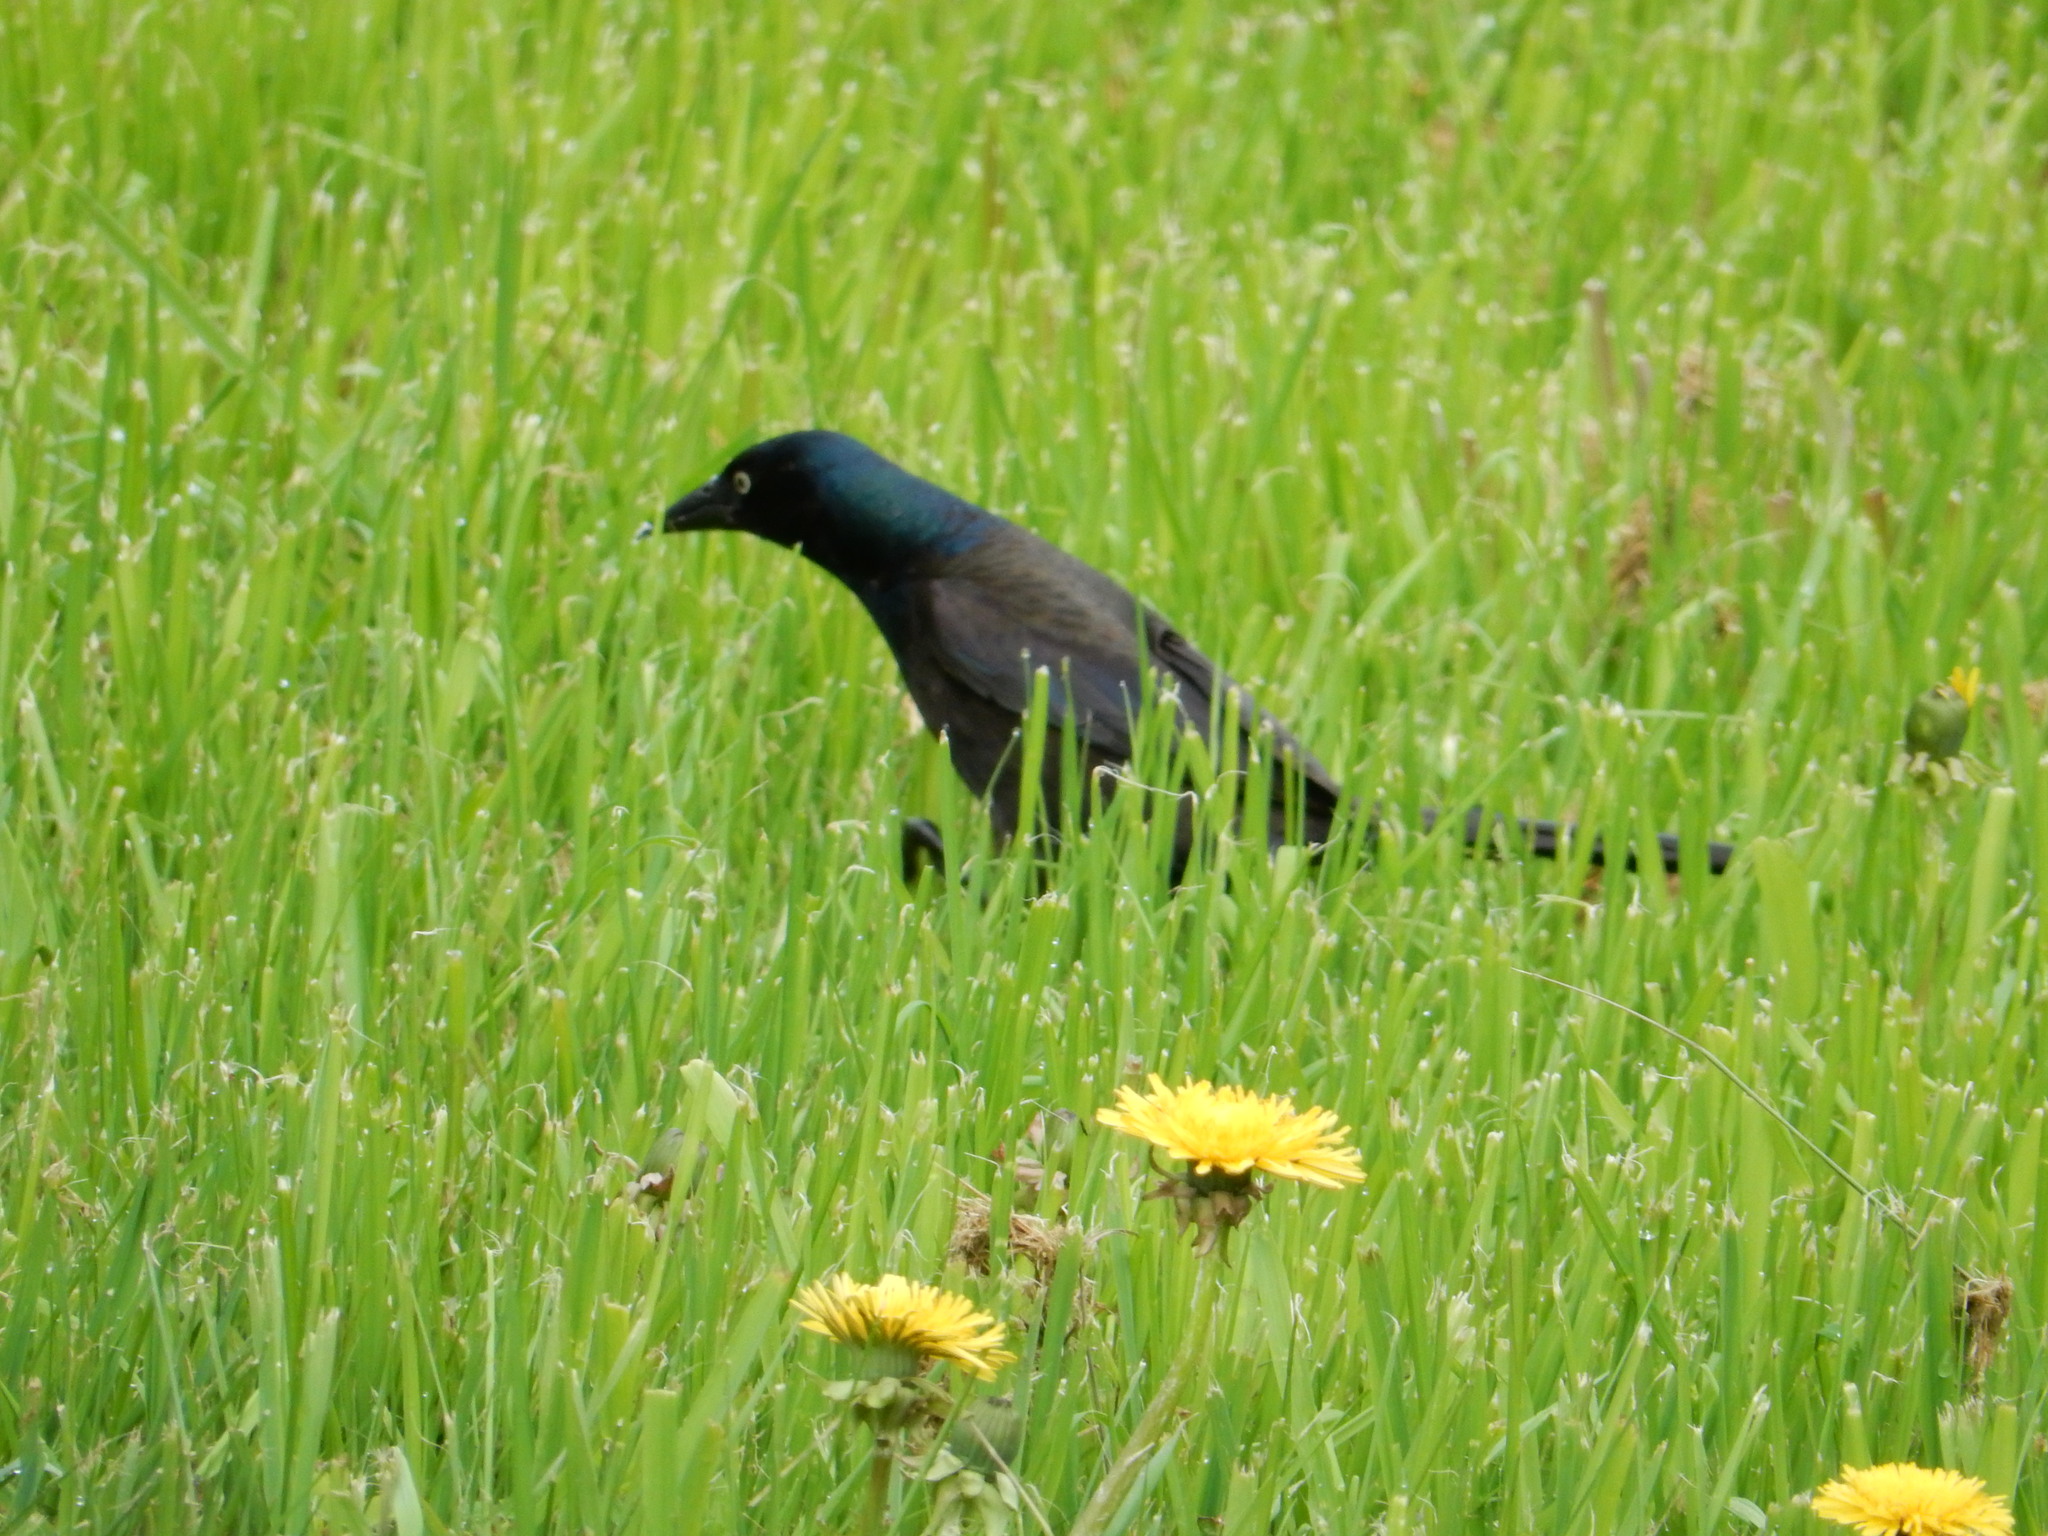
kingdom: Animalia
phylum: Chordata
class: Aves
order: Passeriformes
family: Icteridae
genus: Quiscalus
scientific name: Quiscalus quiscula
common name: Common grackle
